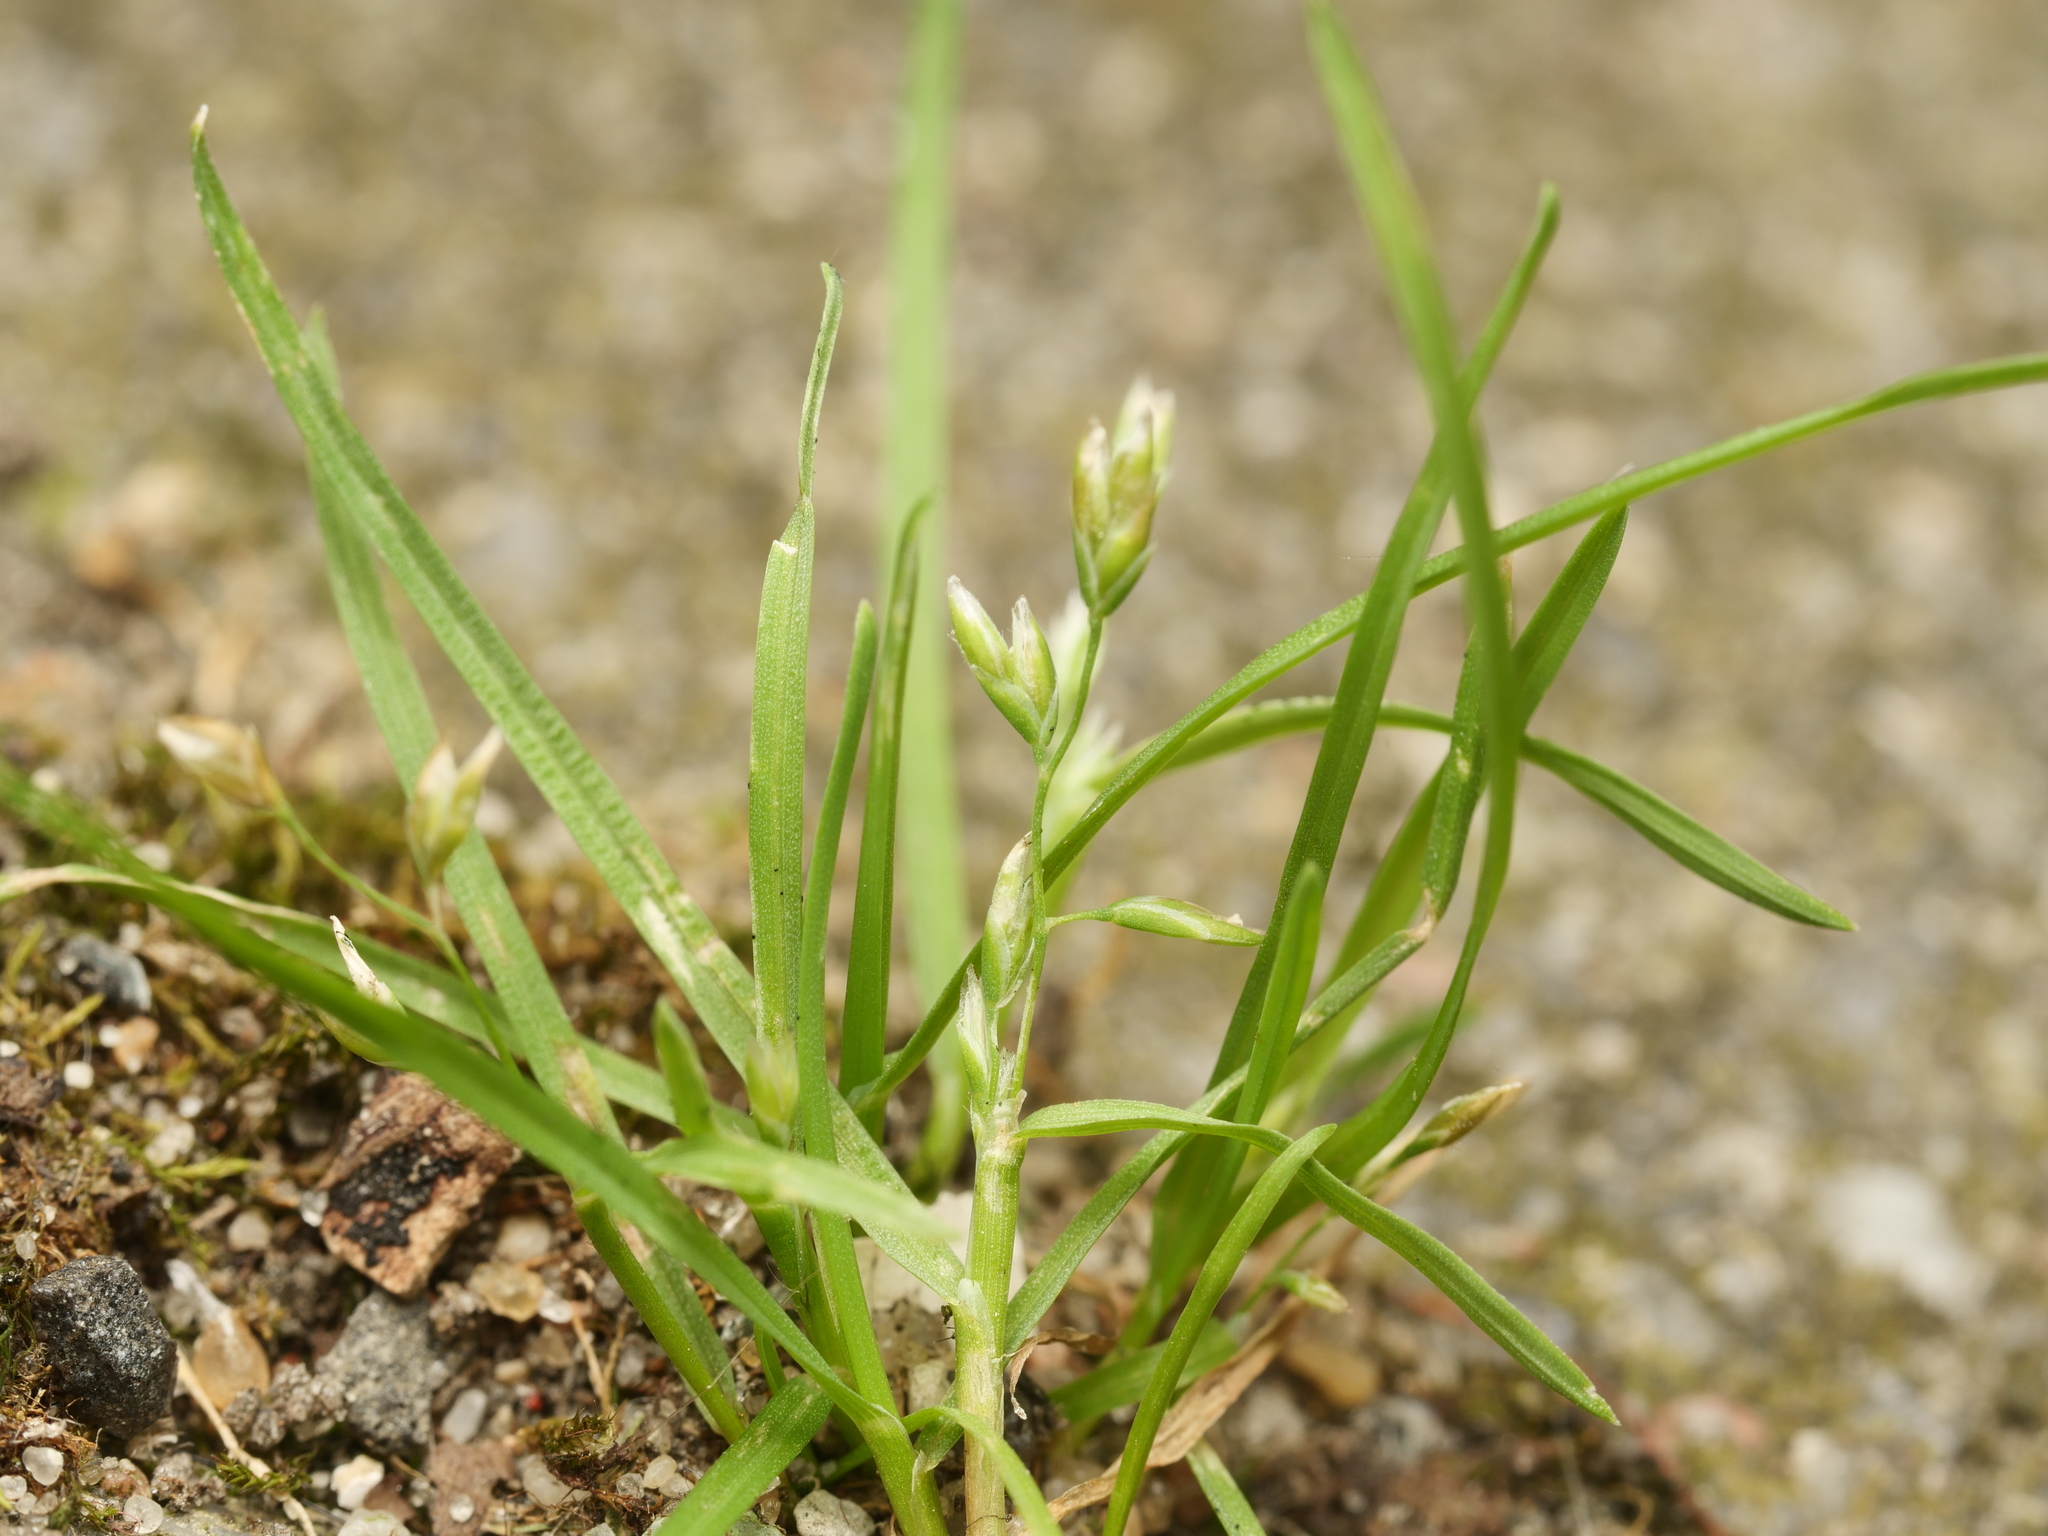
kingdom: Plantae
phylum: Tracheophyta
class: Liliopsida
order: Poales
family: Poaceae
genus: Poa
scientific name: Poa annua
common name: Annual bluegrass
